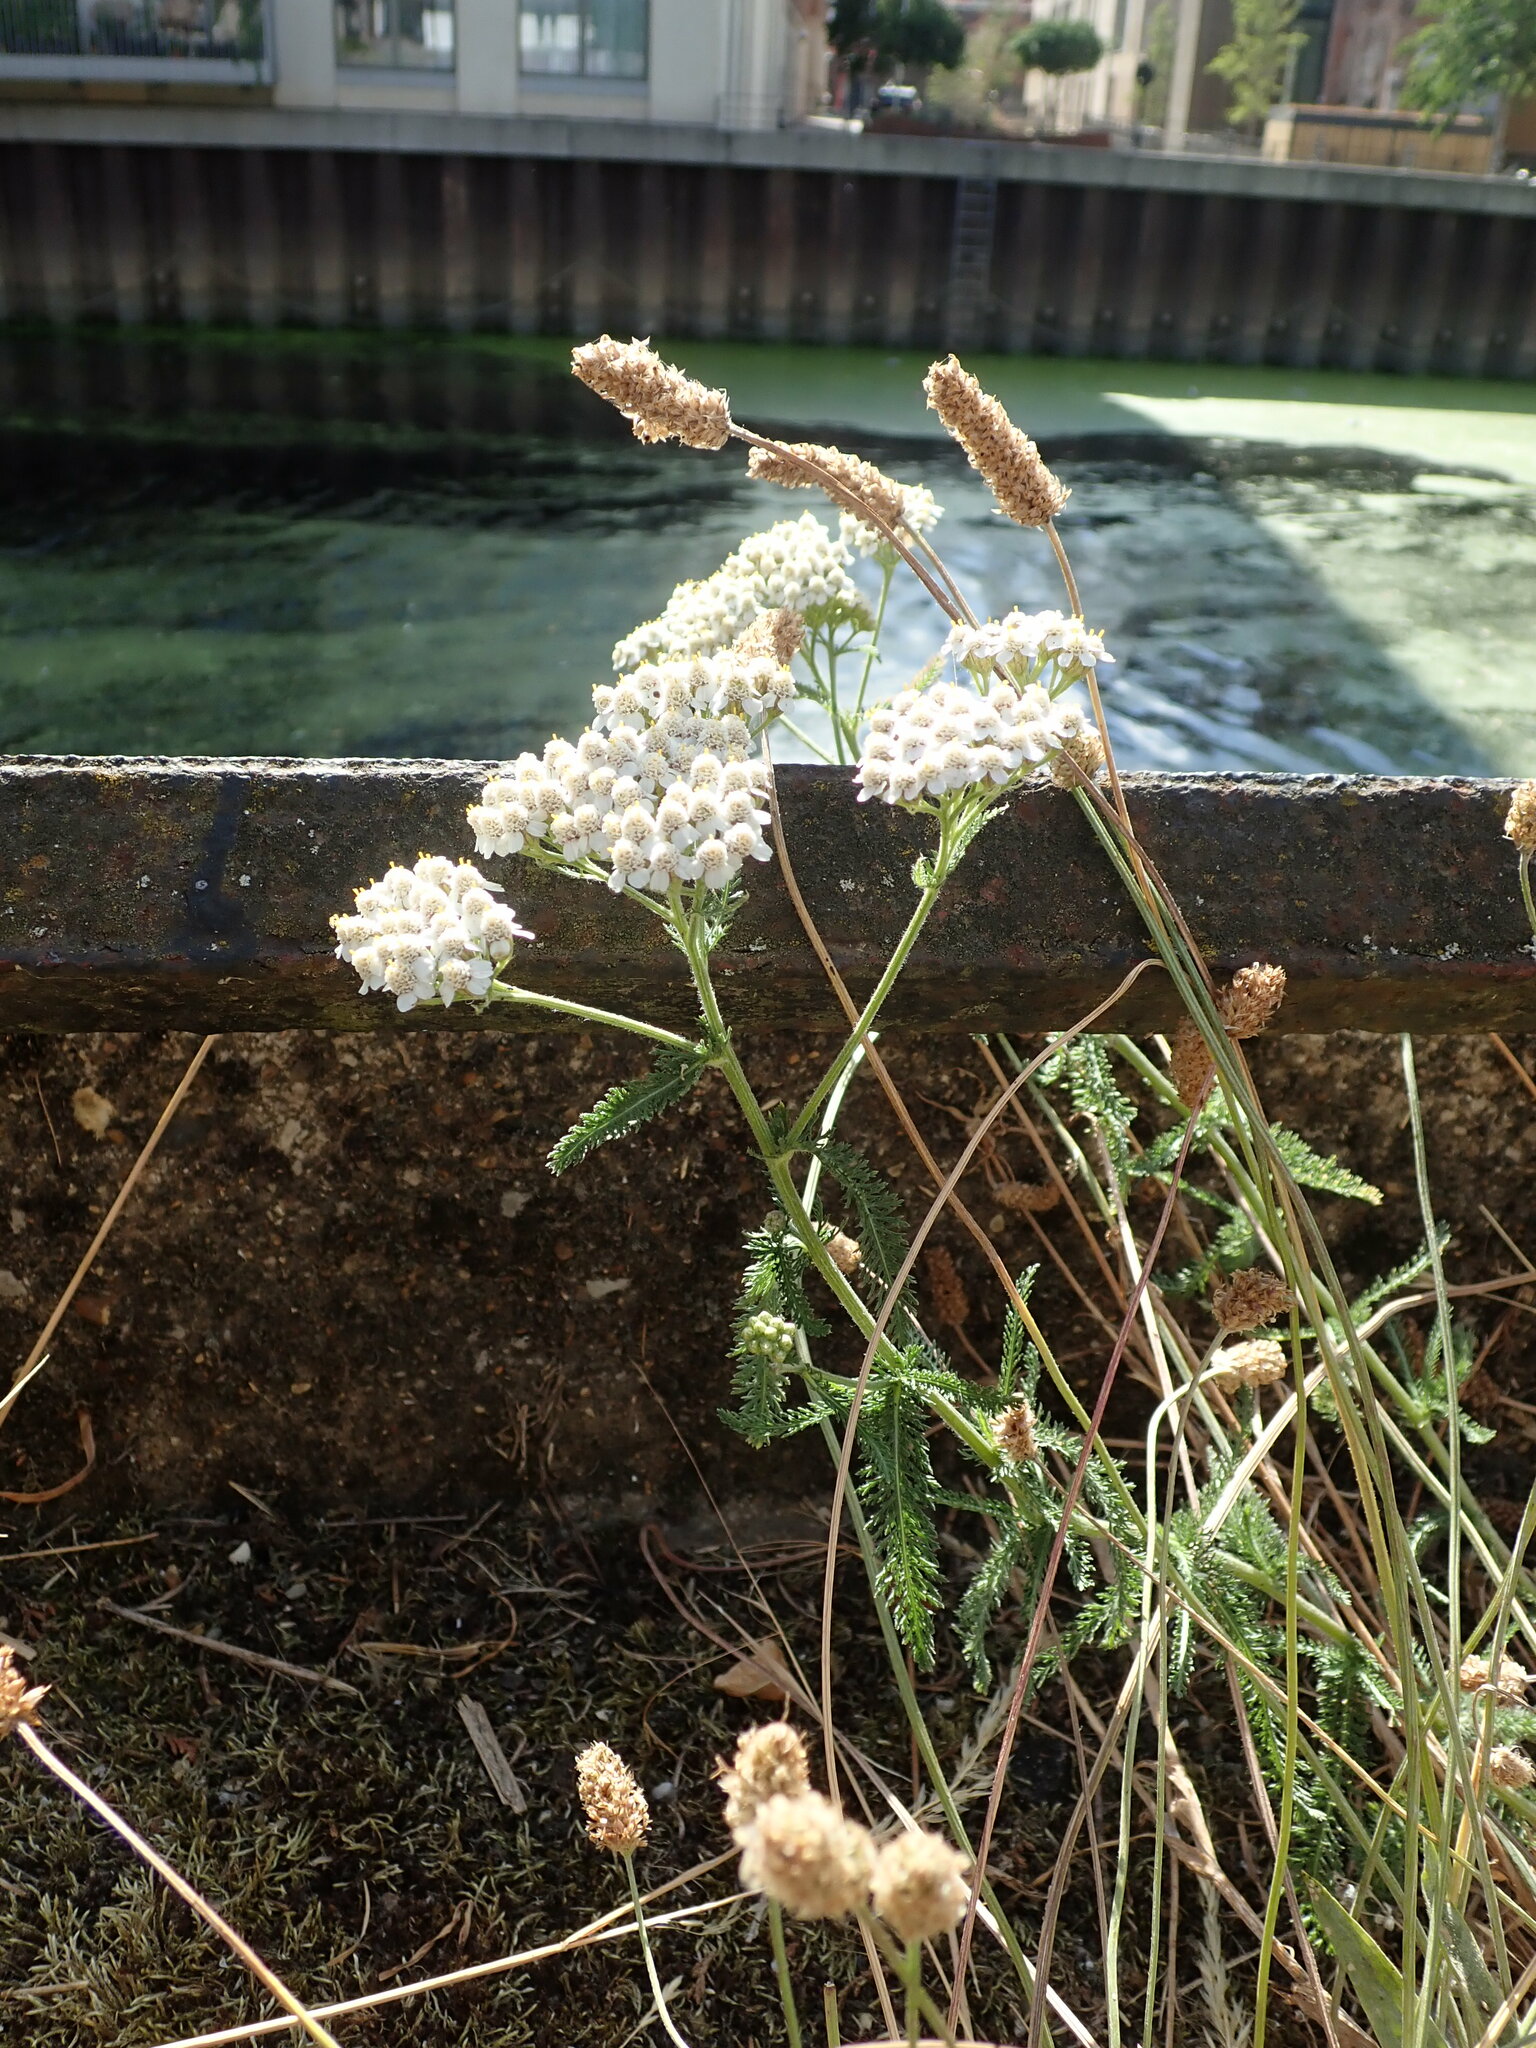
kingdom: Plantae
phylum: Tracheophyta
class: Magnoliopsida
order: Asterales
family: Asteraceae
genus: Achillea
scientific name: Achillea millefolium
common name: Yarrow
